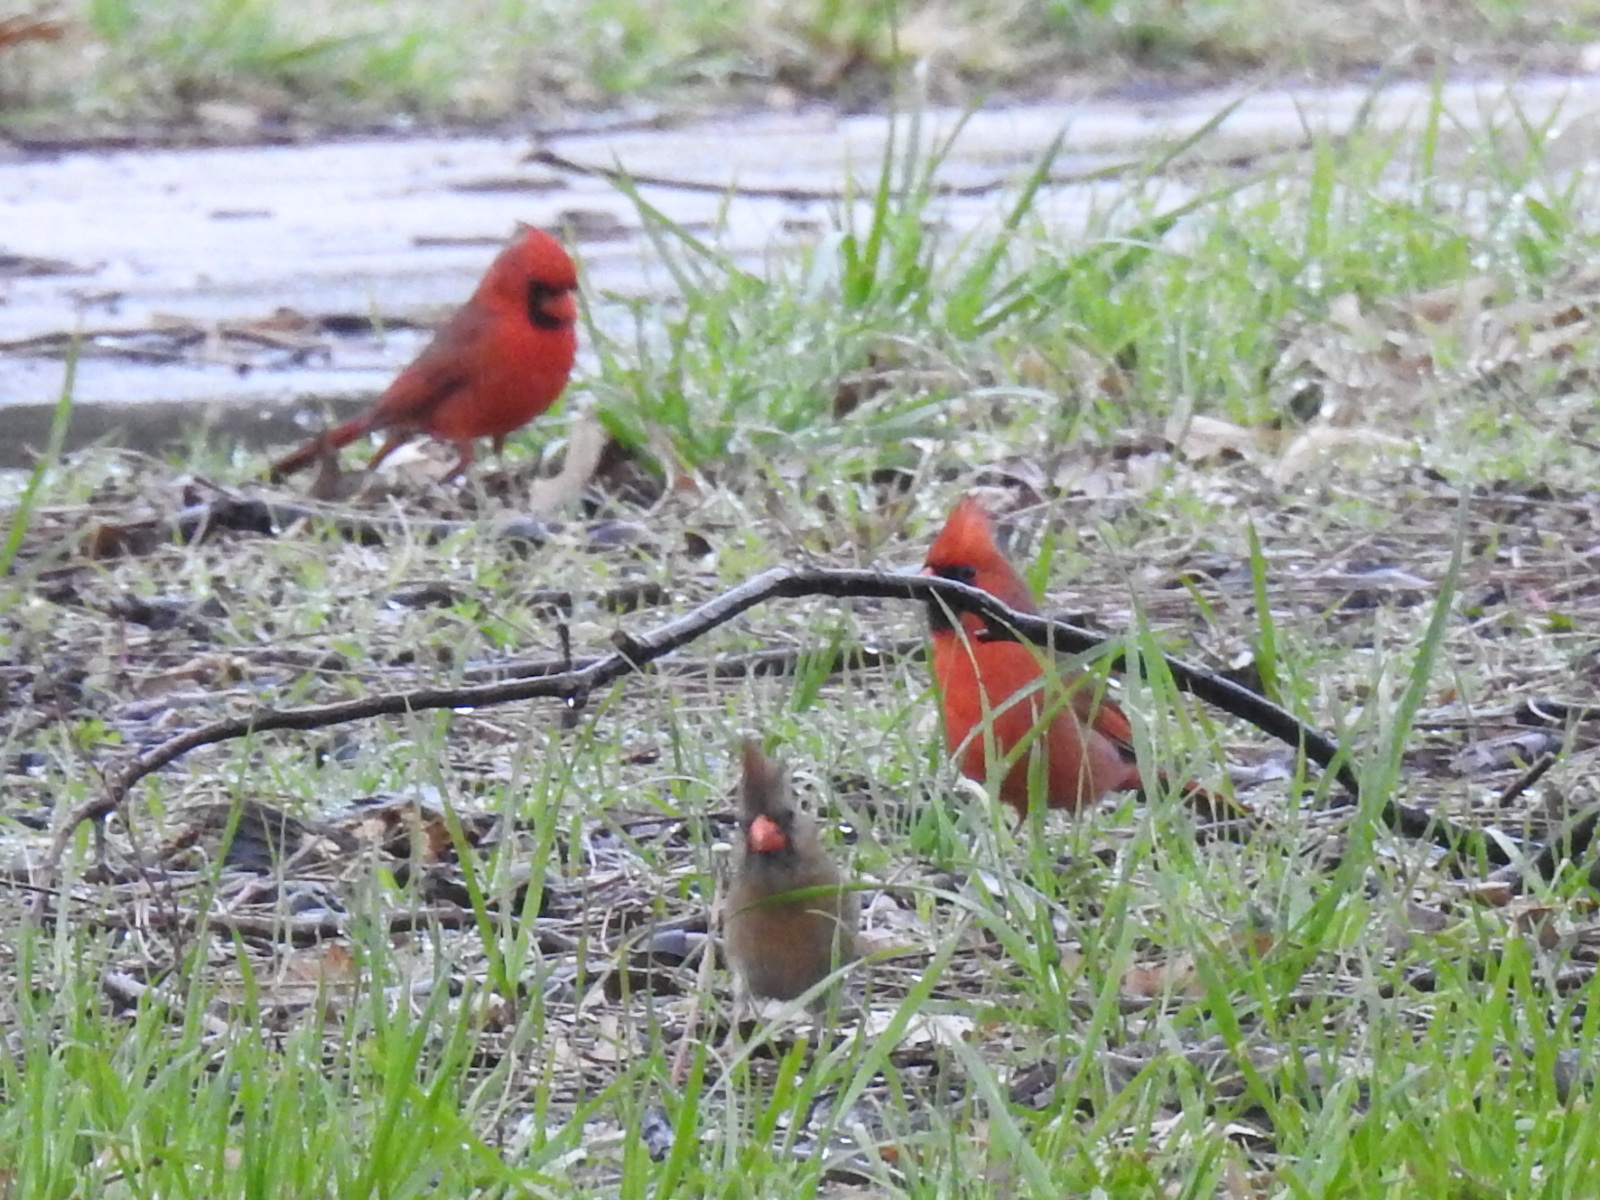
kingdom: Animalia
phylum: Chordata
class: Aves
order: Passeriformes
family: Cardinalidae
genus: Cardinalis
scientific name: Cardinalis cardinalis
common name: Northern cardinal
